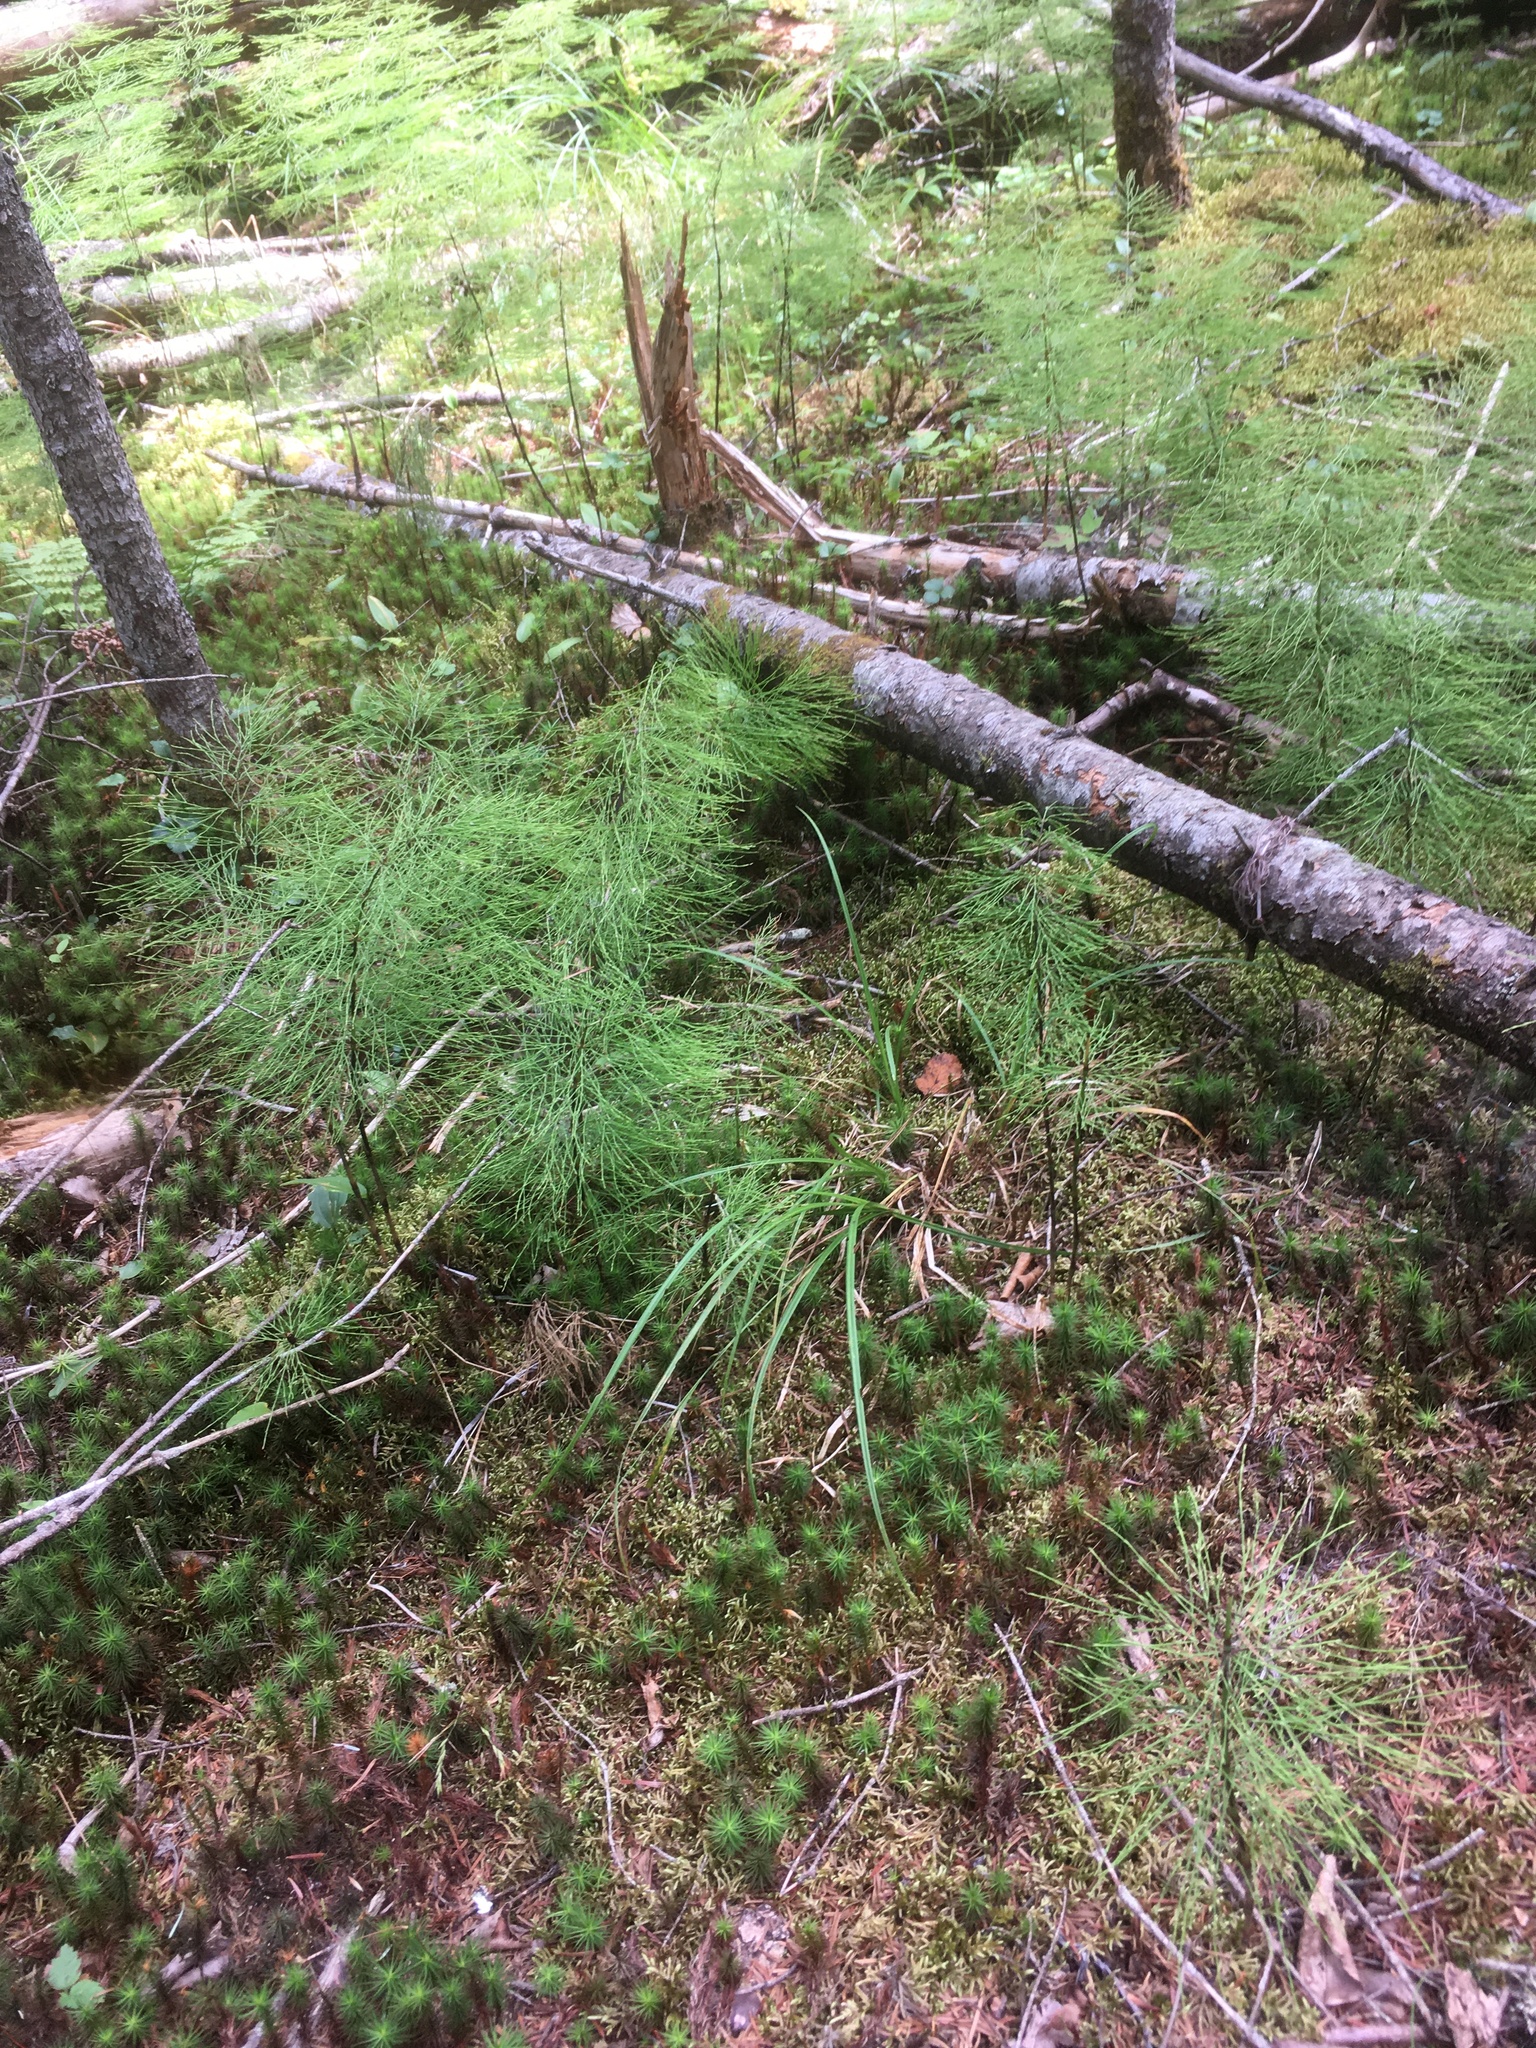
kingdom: Plantae
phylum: Tracheophyta
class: Polypodiopsida
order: Equisetales
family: Equisetaceae
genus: Equisetum
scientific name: Equisetum sylvaticum
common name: Wood horsetail
